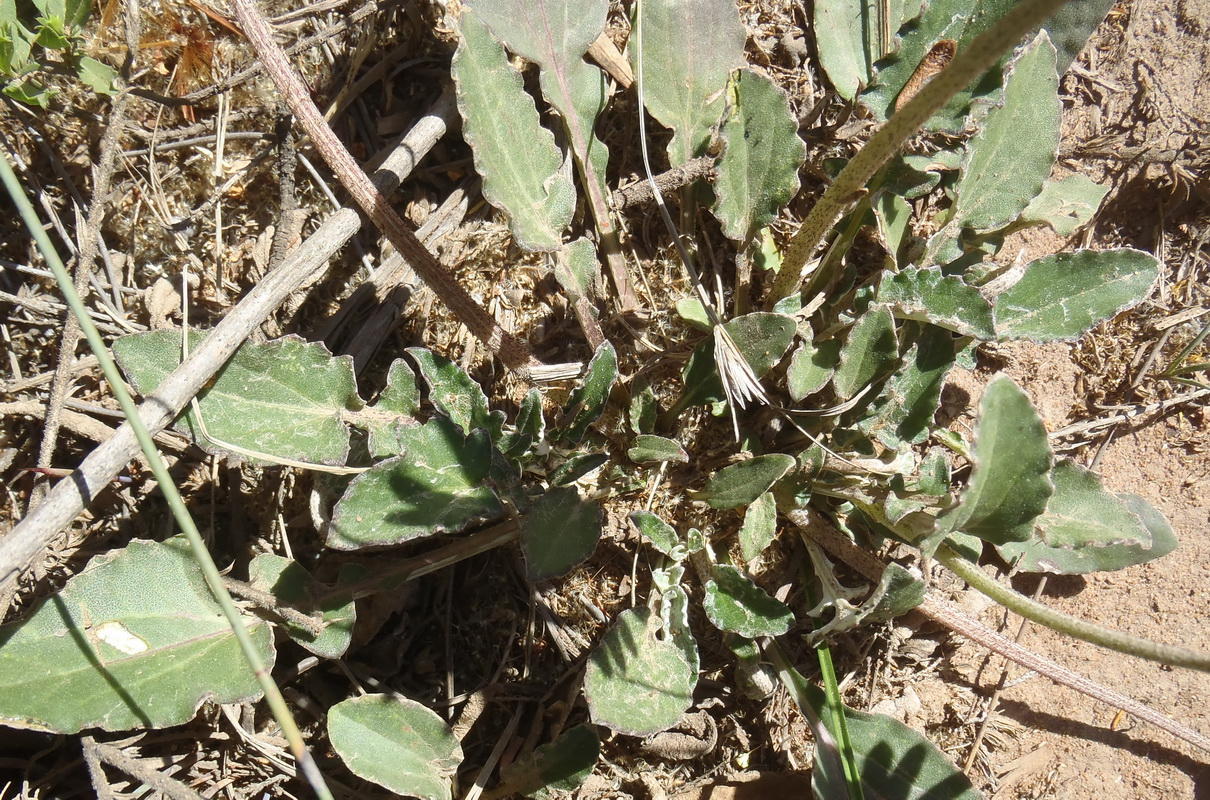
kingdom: Plantae
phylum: Tracheophyta
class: Magnoliopsida
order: Asterales
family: Asteraceae
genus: Haplocarpha
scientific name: Haplocarpha lyrata
